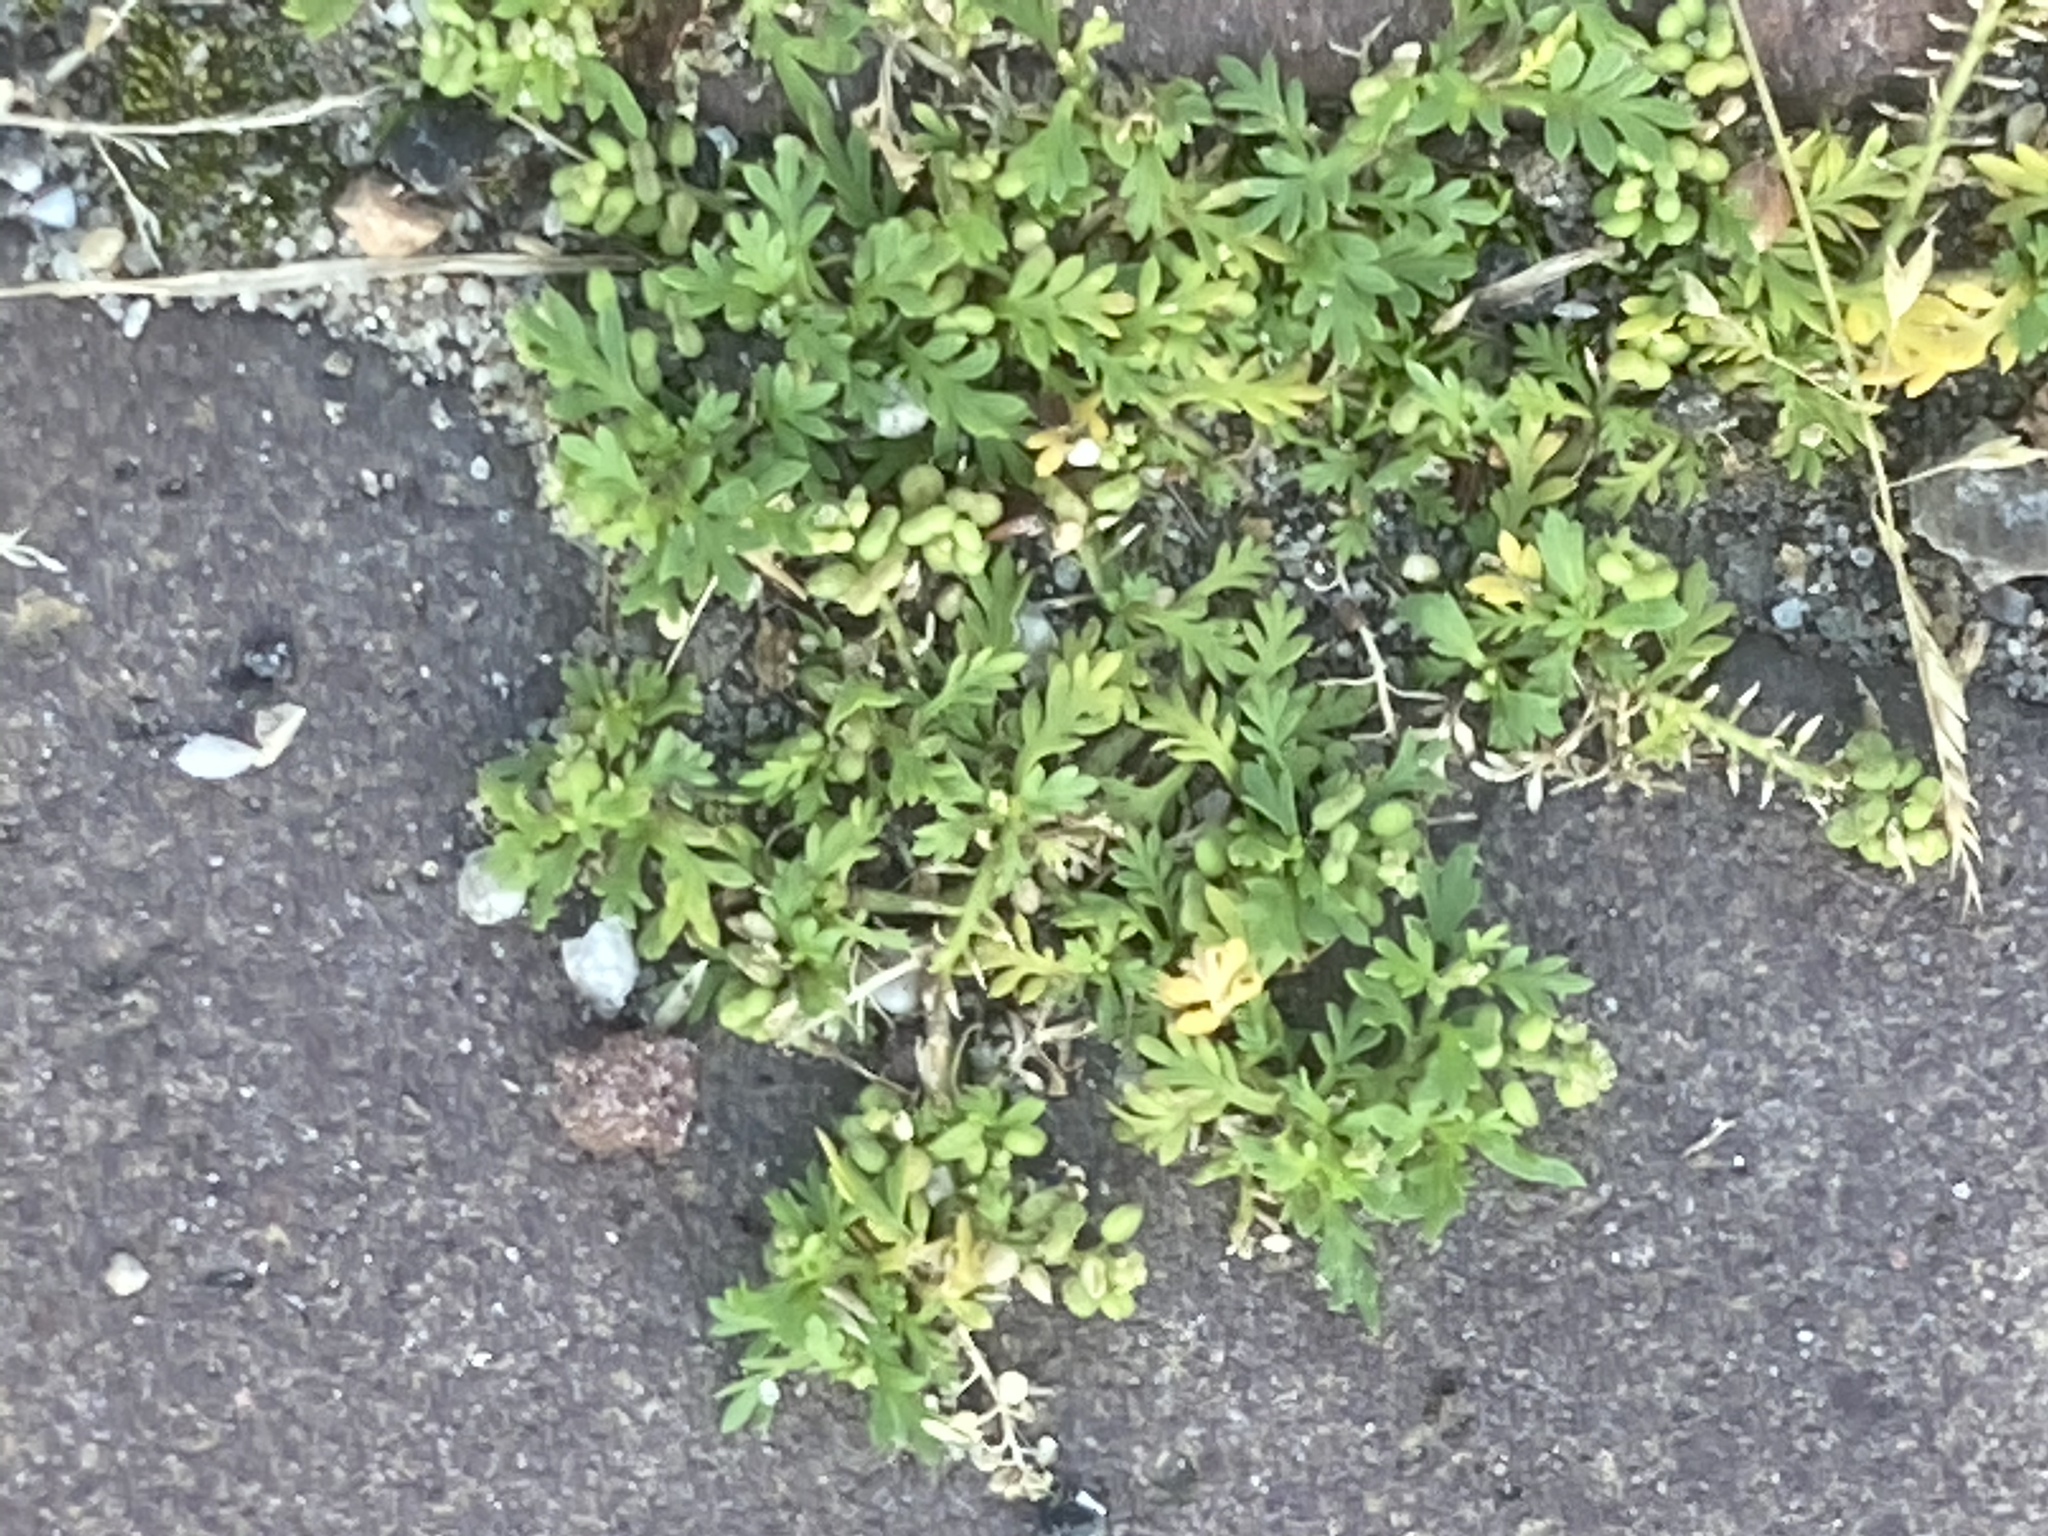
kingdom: Plantae
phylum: Tracheophyta
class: Magnoliopsida
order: Brassicales
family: Brassicaceae
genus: Lepidium
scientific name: Lepidium didymum
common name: Lesser swinecress
